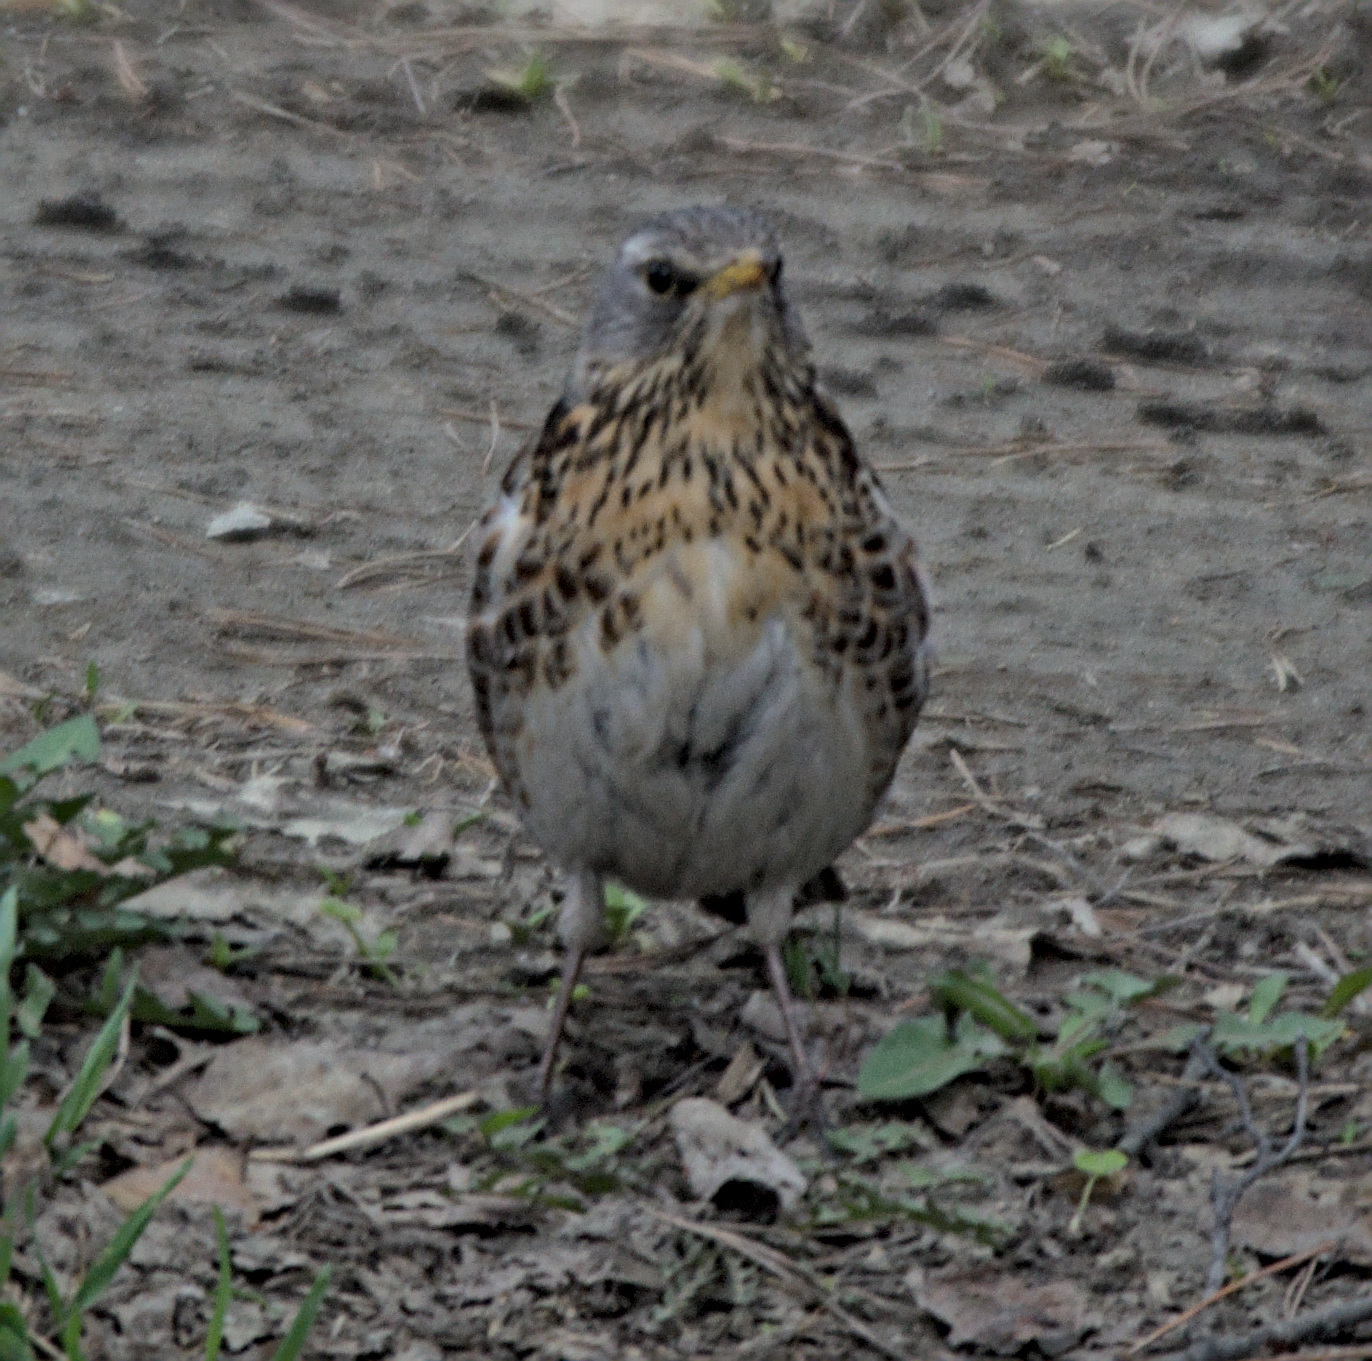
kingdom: Animalia
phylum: Chordata
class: Aves
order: Passeriformes
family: Turdidae
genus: Turdus
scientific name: Turdus pilaris
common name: Fieldfare
